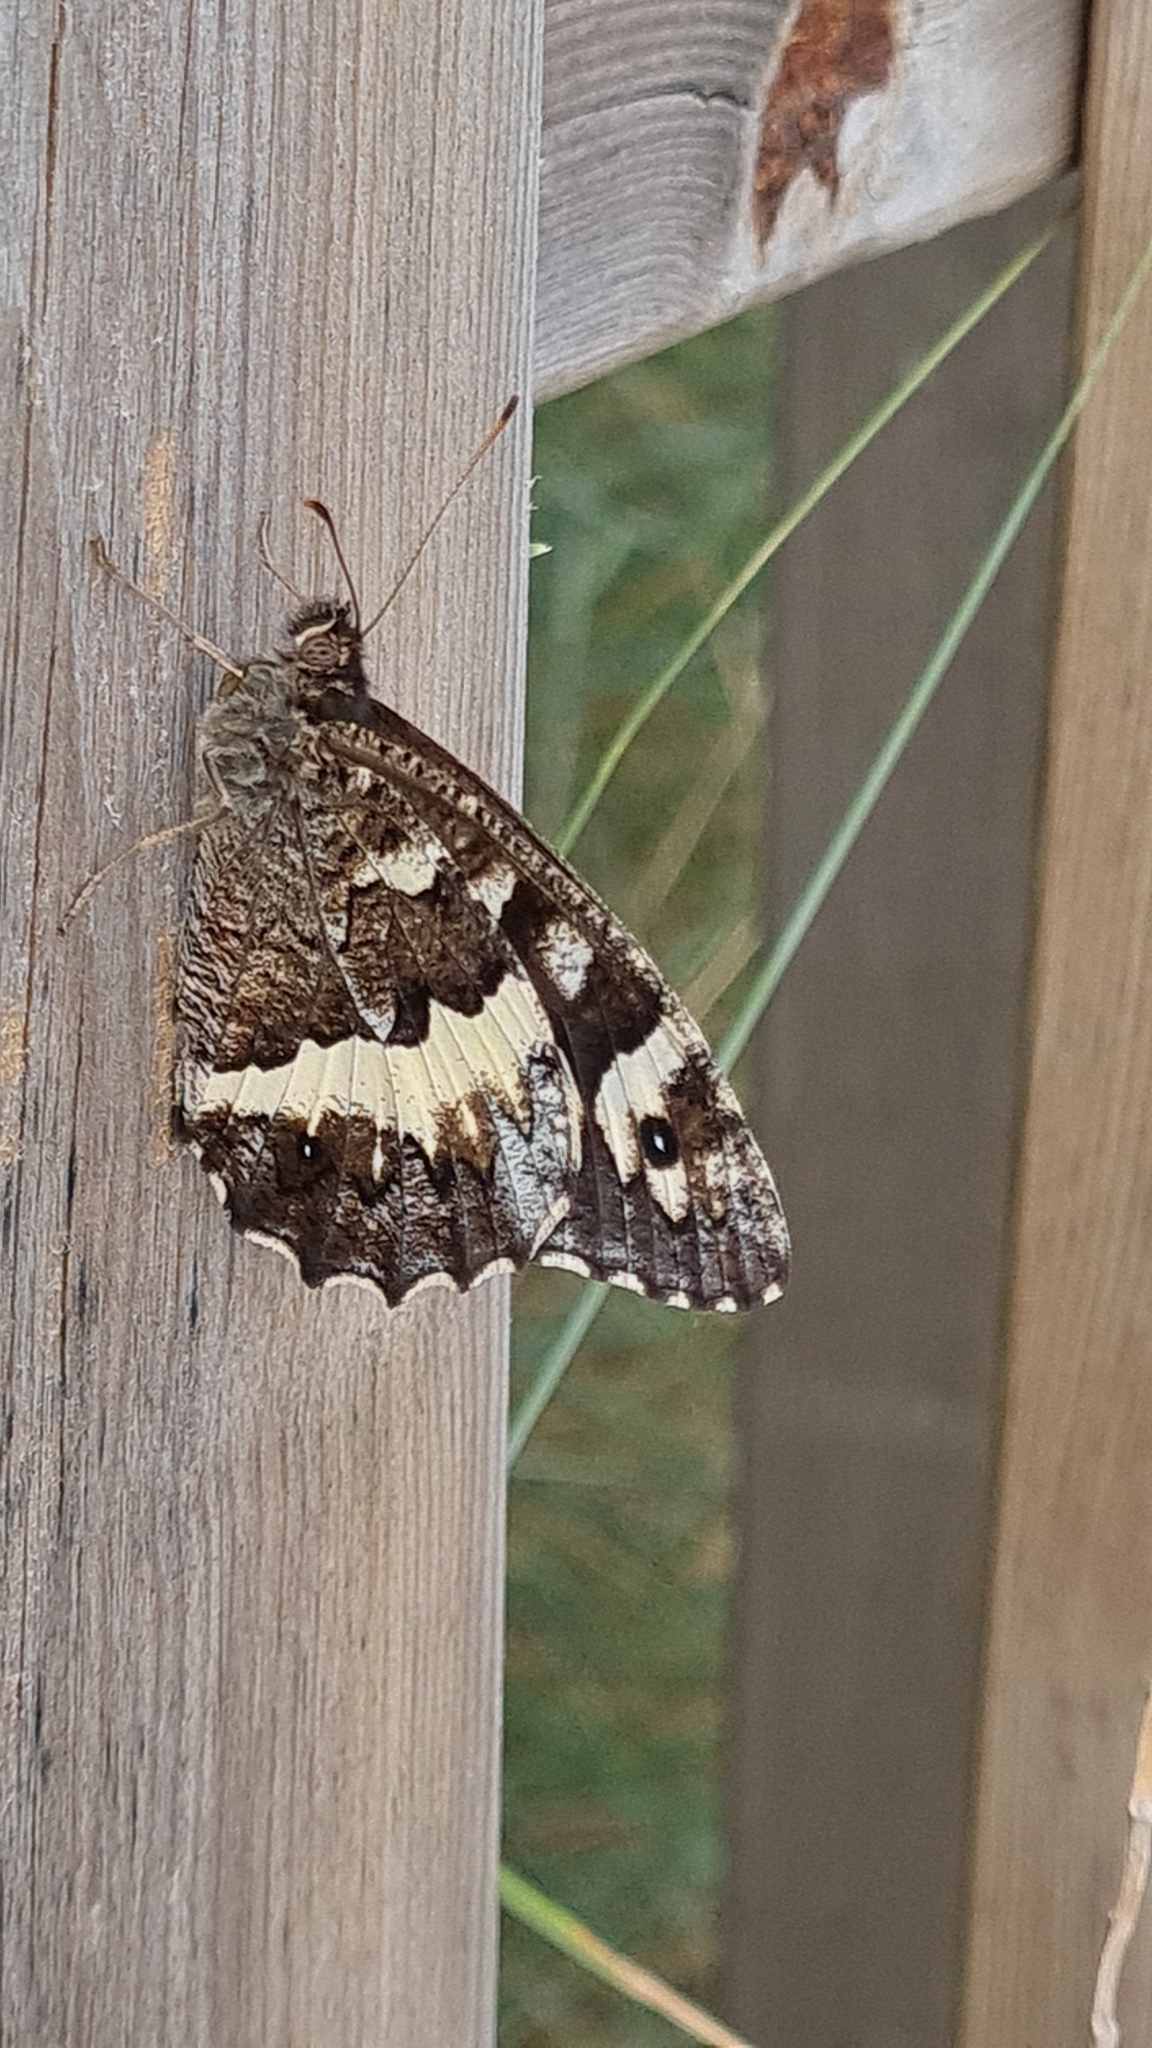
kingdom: Animalia
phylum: Arthropoda
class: Insecta
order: Lepidoptera
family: Lycaenidae
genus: Loweia
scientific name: Loweia tityrus
